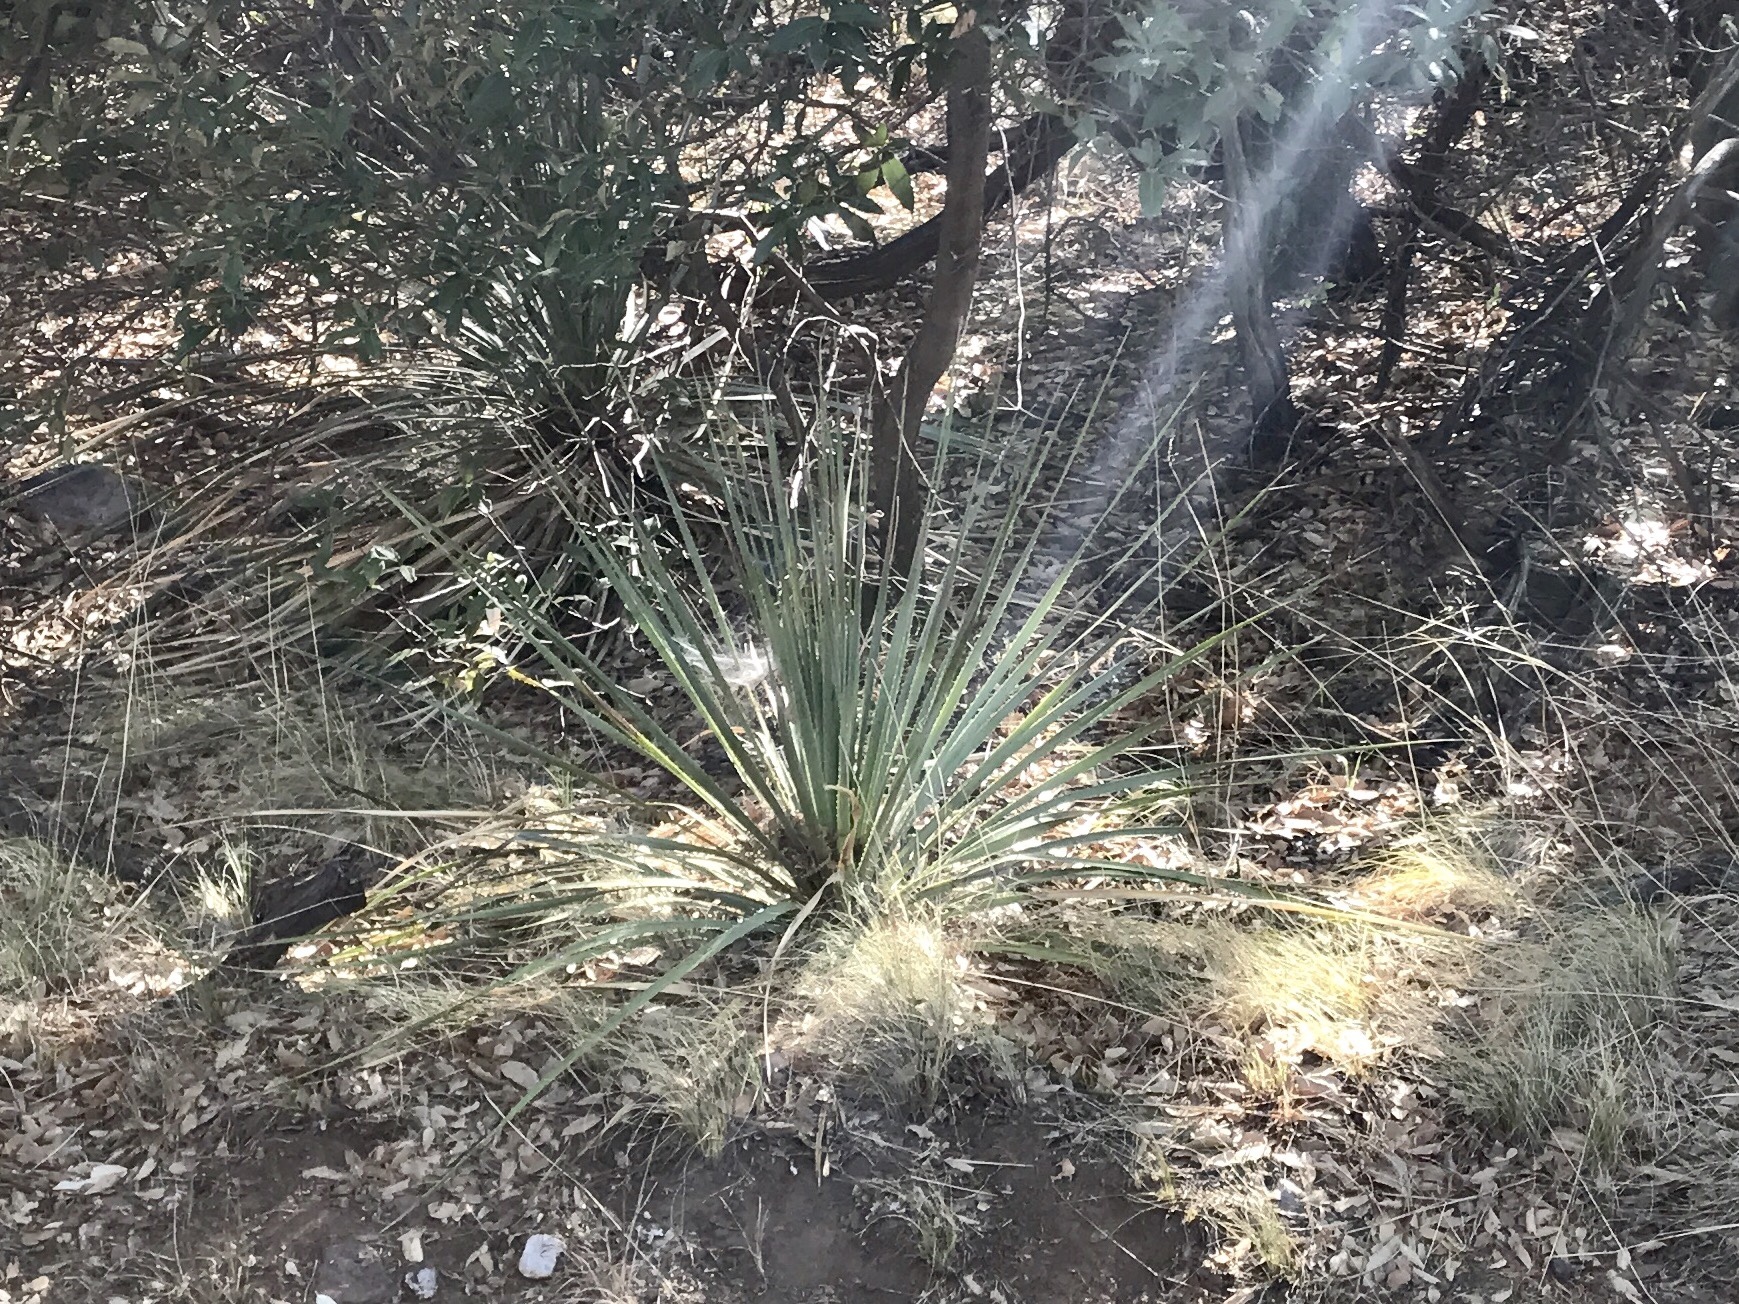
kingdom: Plantae
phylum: Tracheophyta
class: Liliopsida
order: Asparagales
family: Asparagaceae
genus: Dasylirion
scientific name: Dasylirion wheeleri
